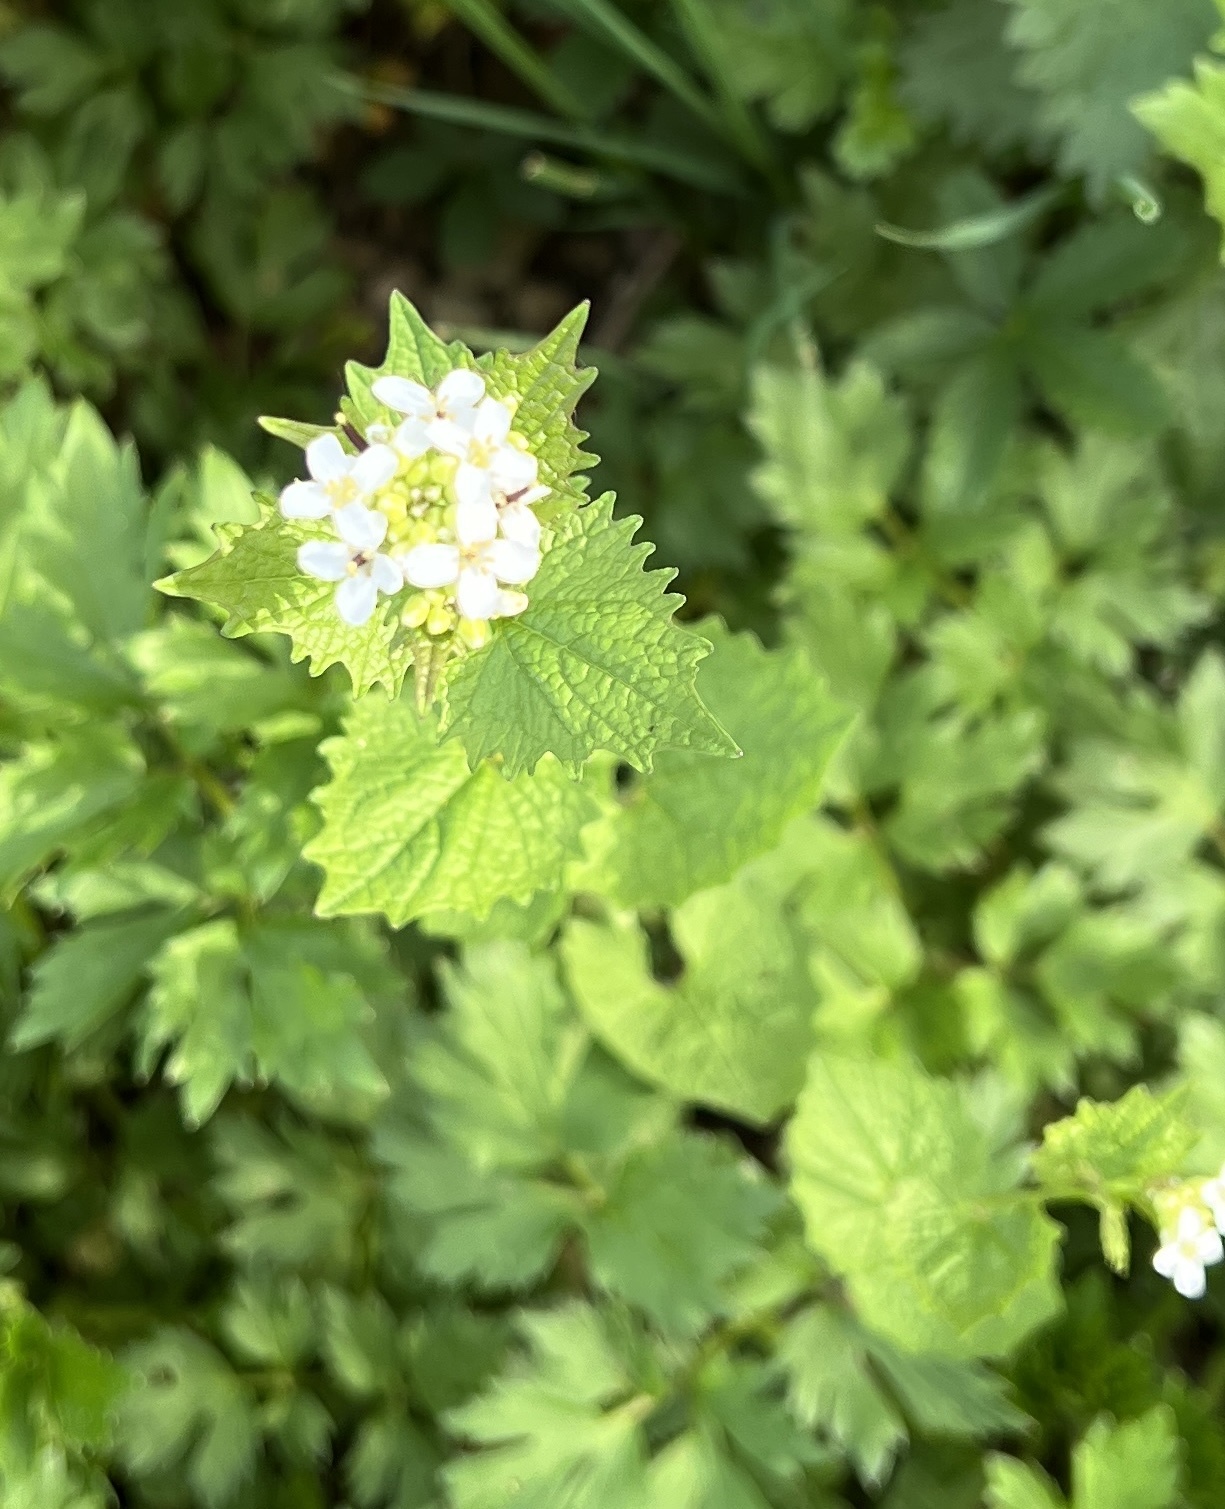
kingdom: Plantae
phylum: Tracheophyta
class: Magnoliopsida
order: Brassicales
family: Brassicaceae
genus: Alliaria
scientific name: Alliaria petiolata
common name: Garlic mustard
